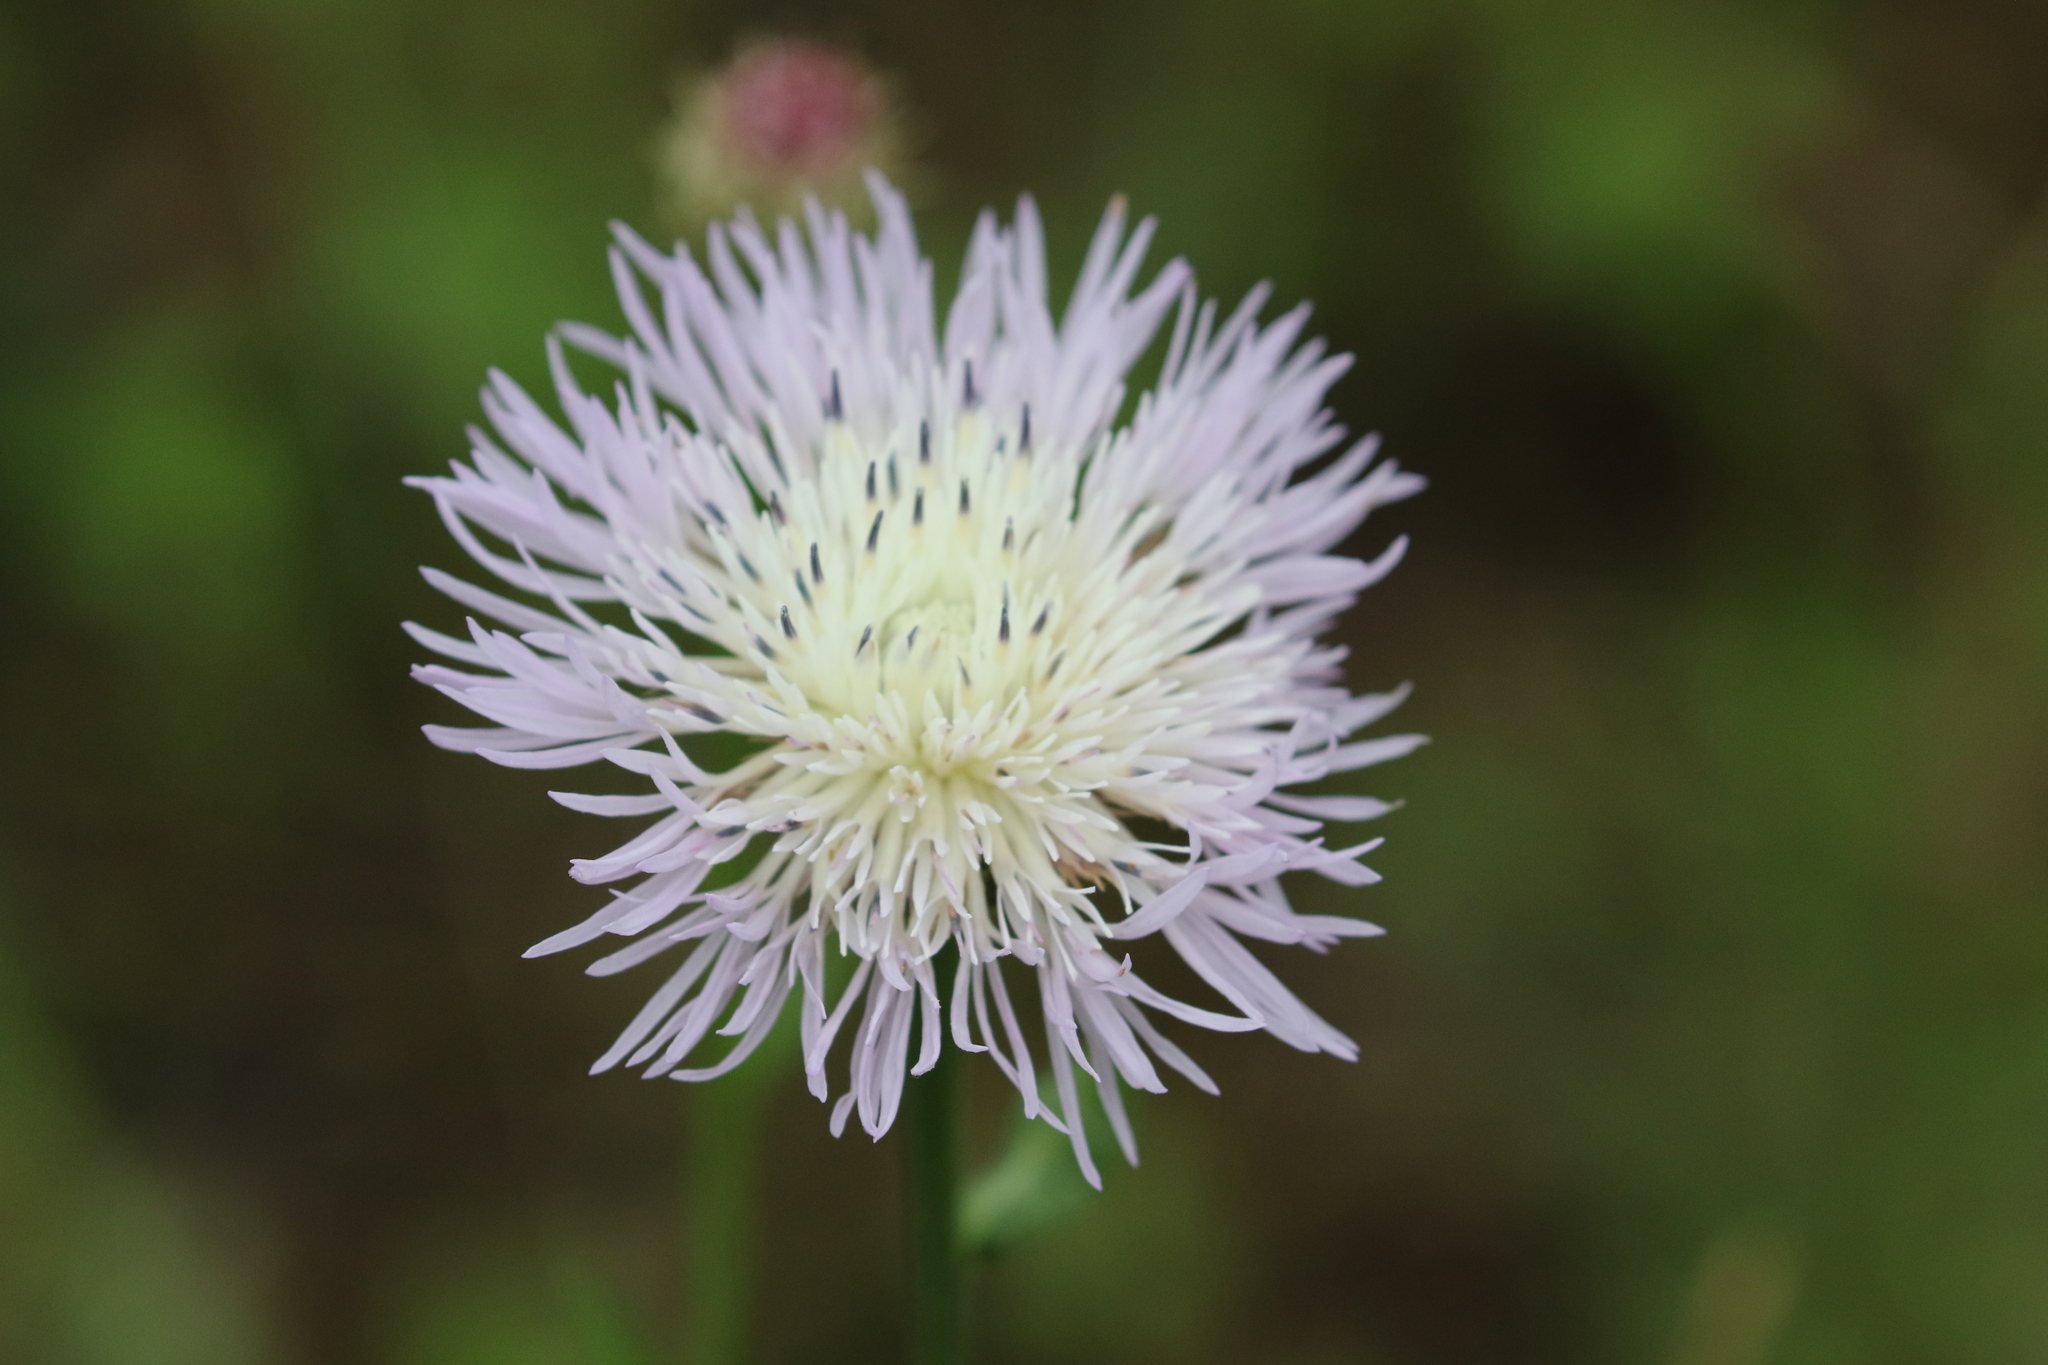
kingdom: Plantae
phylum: Tracheophyta
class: Magnoliopsida
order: Asterales
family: Asteraceae
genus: Plectocephalus
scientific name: Plectocephalus americanus
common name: American basket-flower
